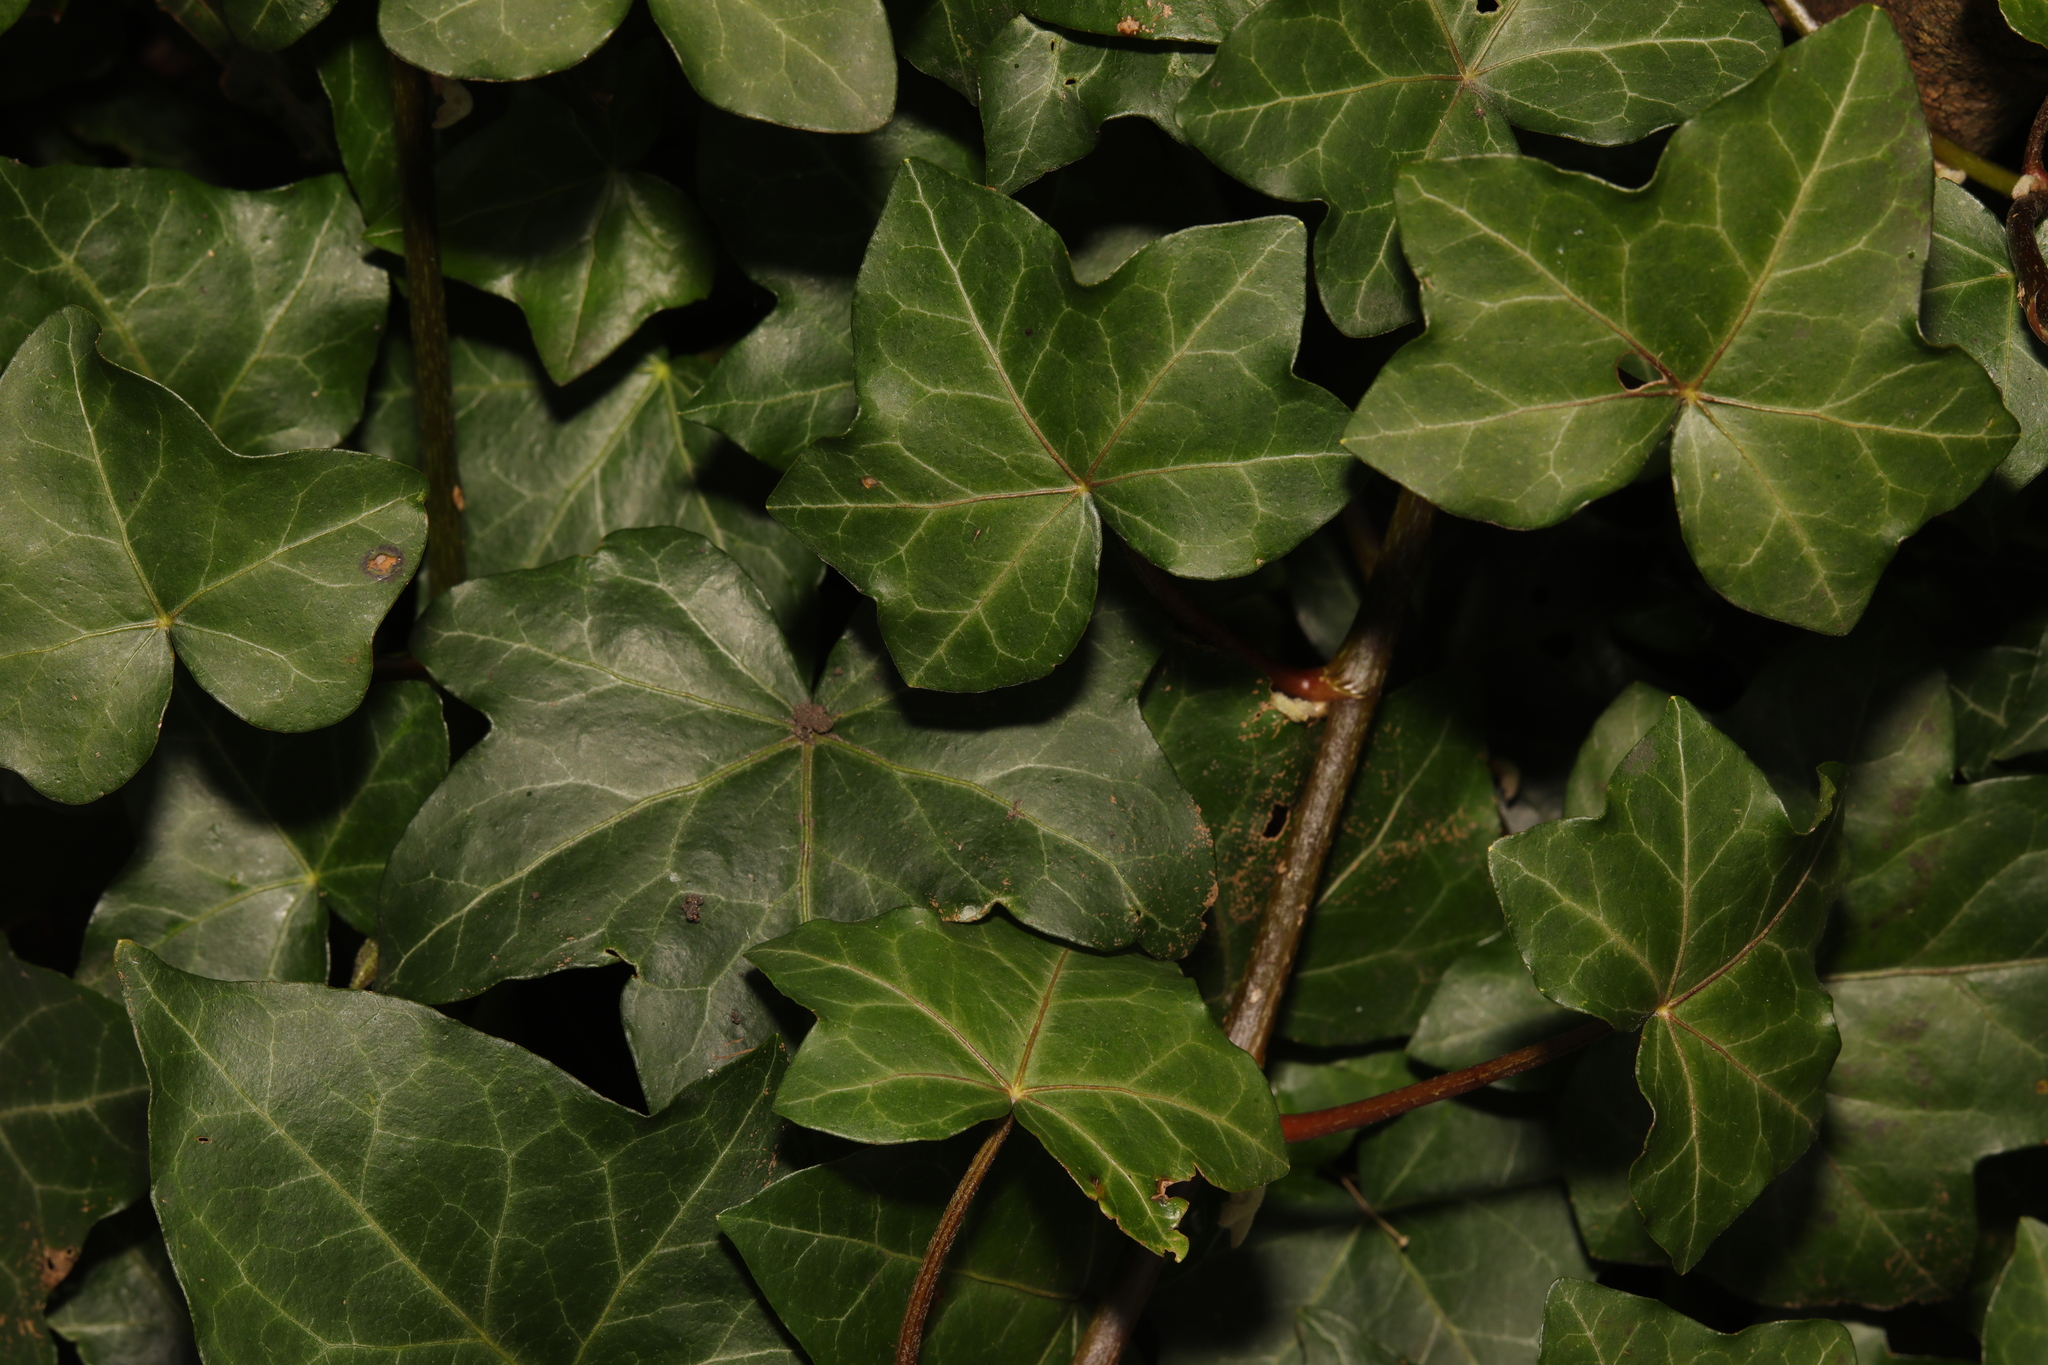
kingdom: Plantae
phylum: Tracheophyta
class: Magnoliopsida
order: Apiales
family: Araliaceae
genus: Hedera
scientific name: Hedera helix
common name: Ivy
